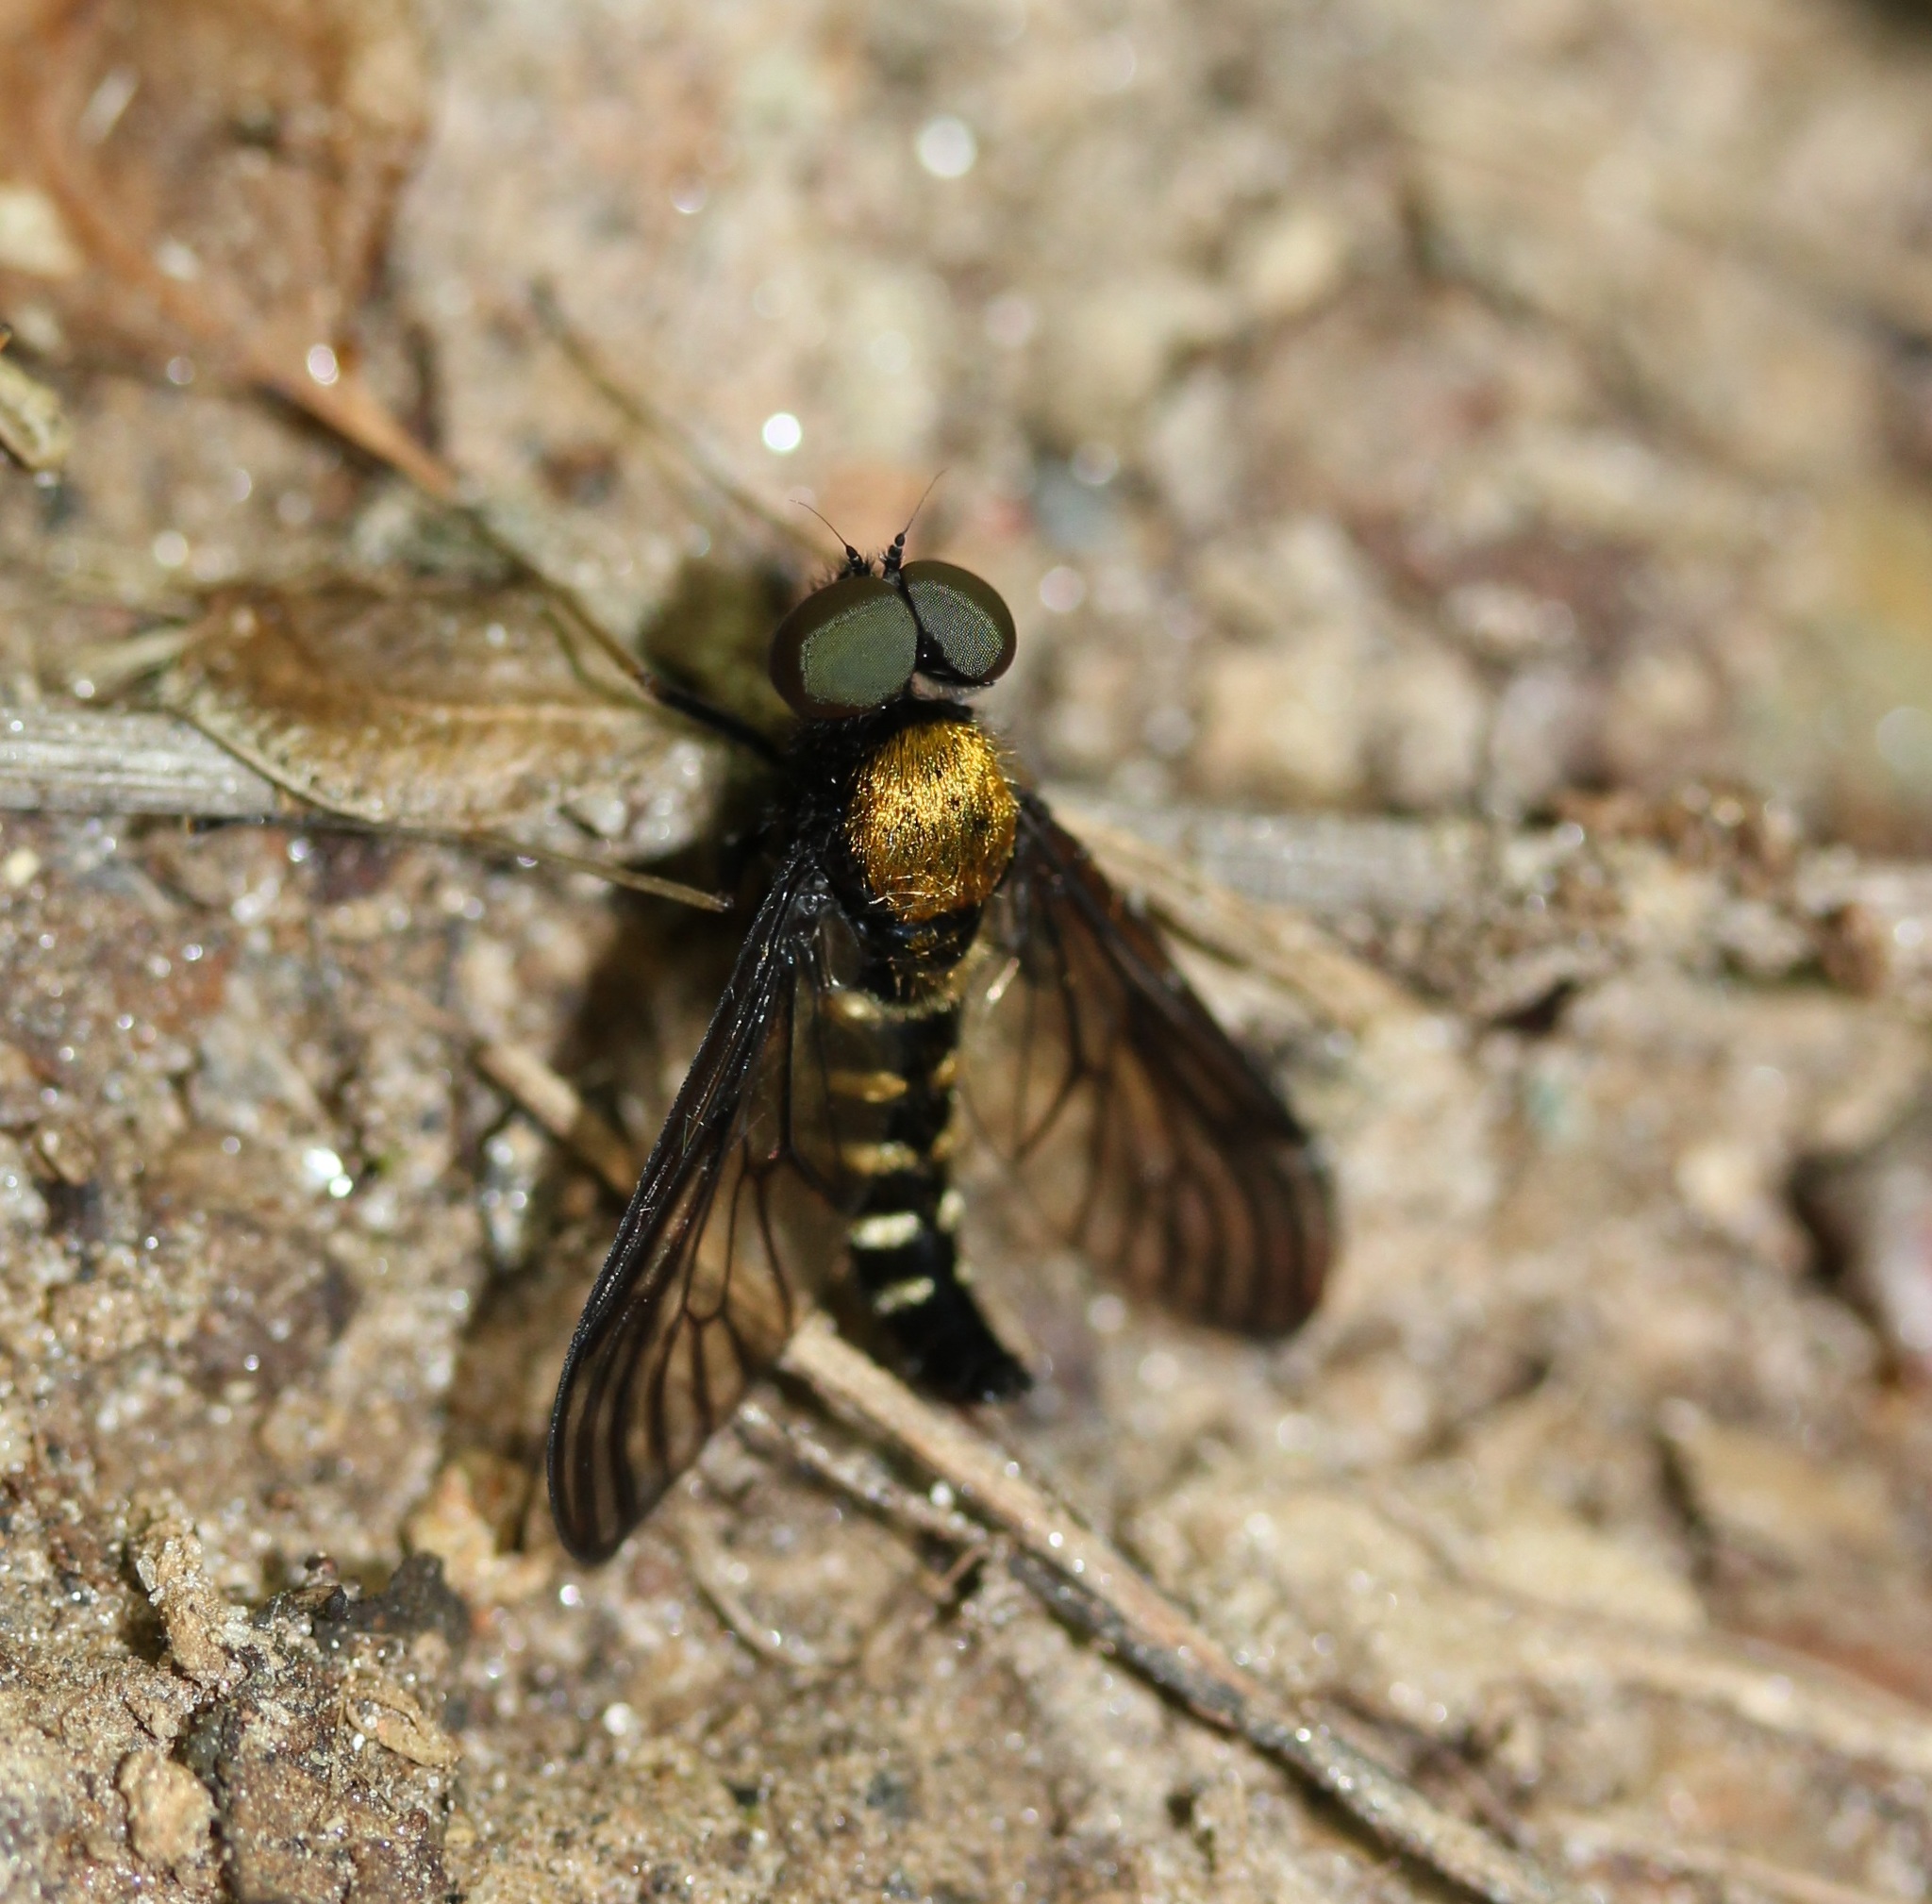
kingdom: Animalia
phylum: Arthropoda
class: Insecta
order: Diptera
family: Rhagionidae
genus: Chrysopilus
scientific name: Chrysopilus thoracicus
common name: Golden-backed snipe fly
